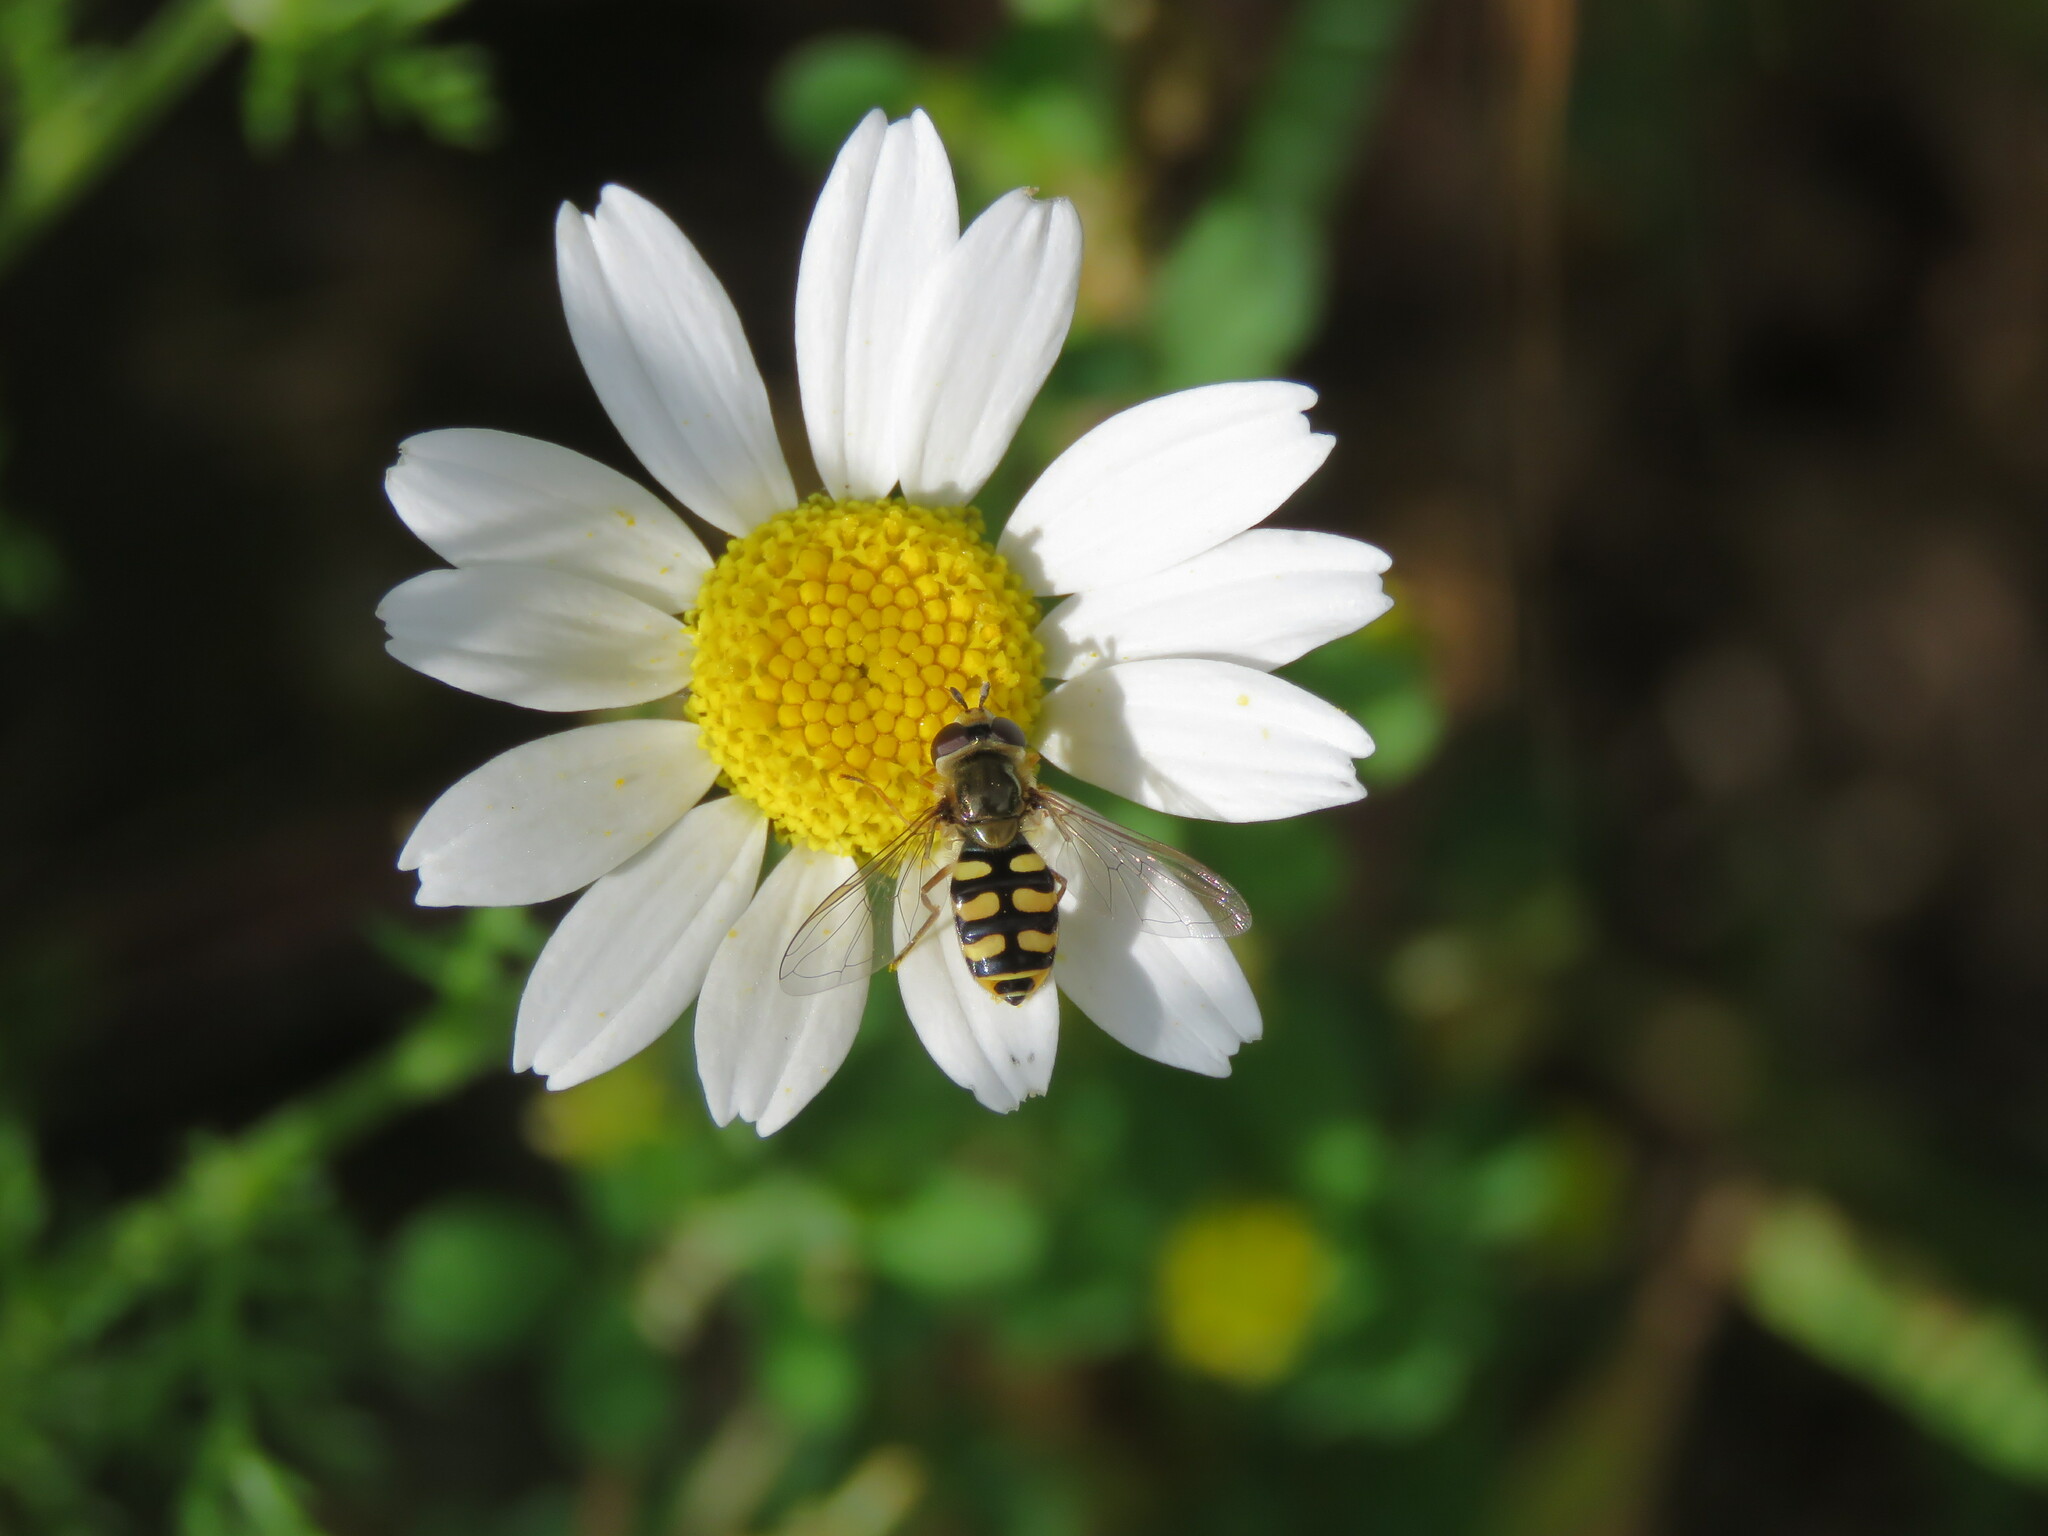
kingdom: Animalia
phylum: Arthropoda
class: Insecta
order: Diptera
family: Syrphidae
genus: Eupeodes
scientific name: Eupeodes corollae
